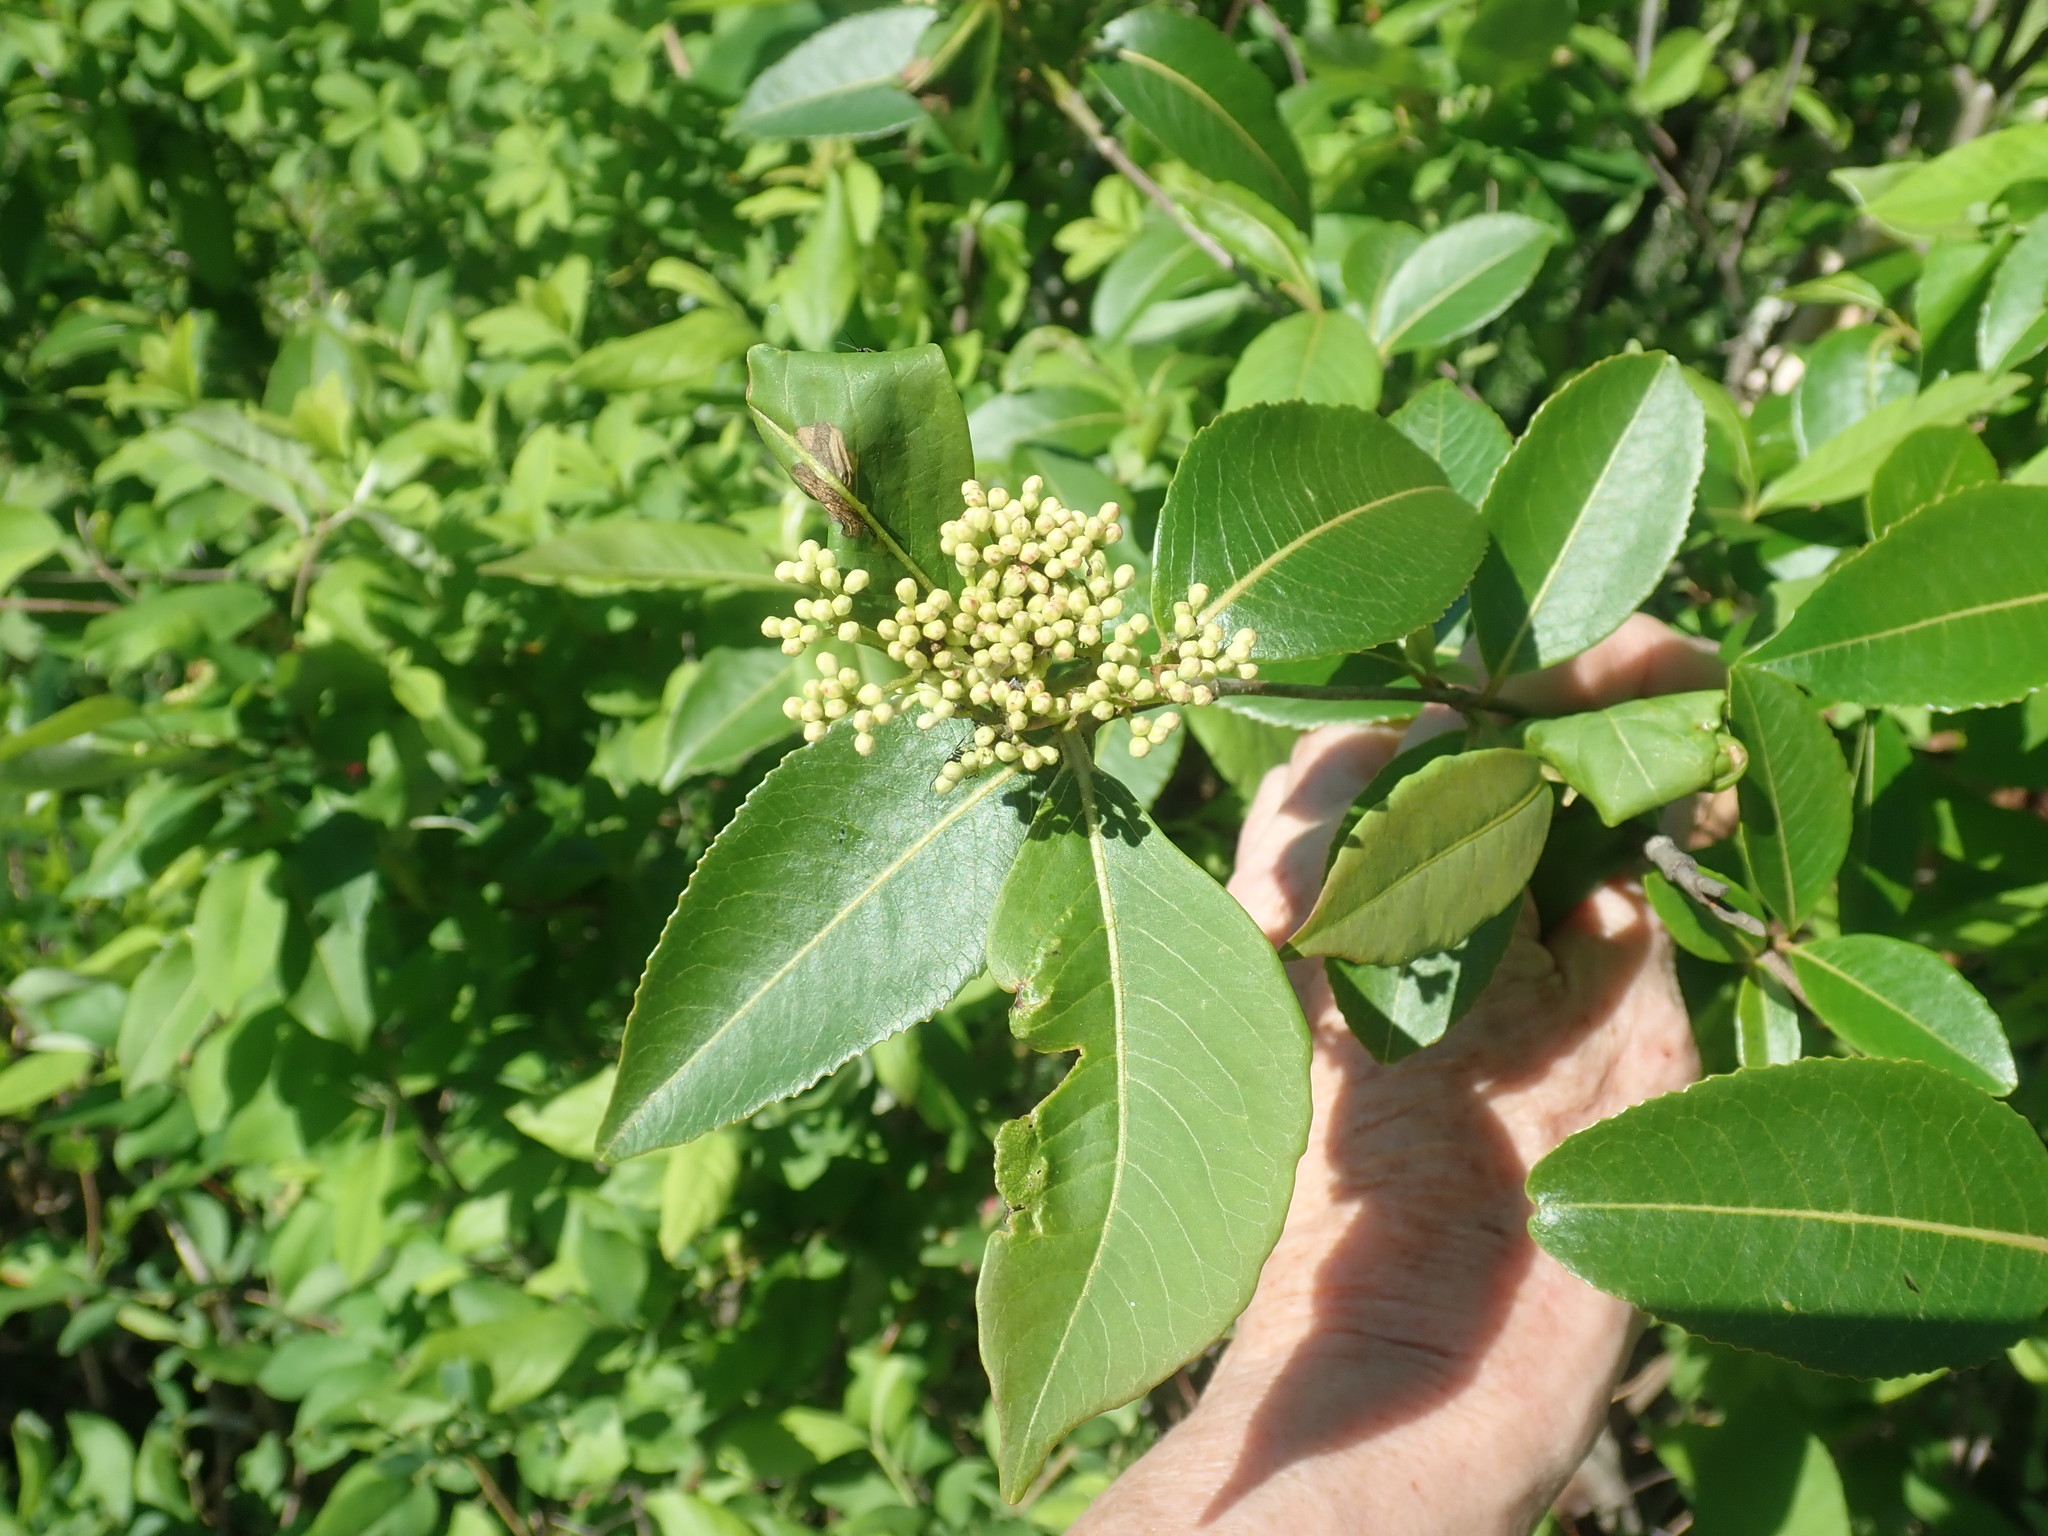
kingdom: Plantae
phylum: Tracheophyta
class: Magnoliopsida
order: Dipsacales
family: Viburnaceae
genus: Viburnum
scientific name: Viburnum cassinoides
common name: Swamp haw
